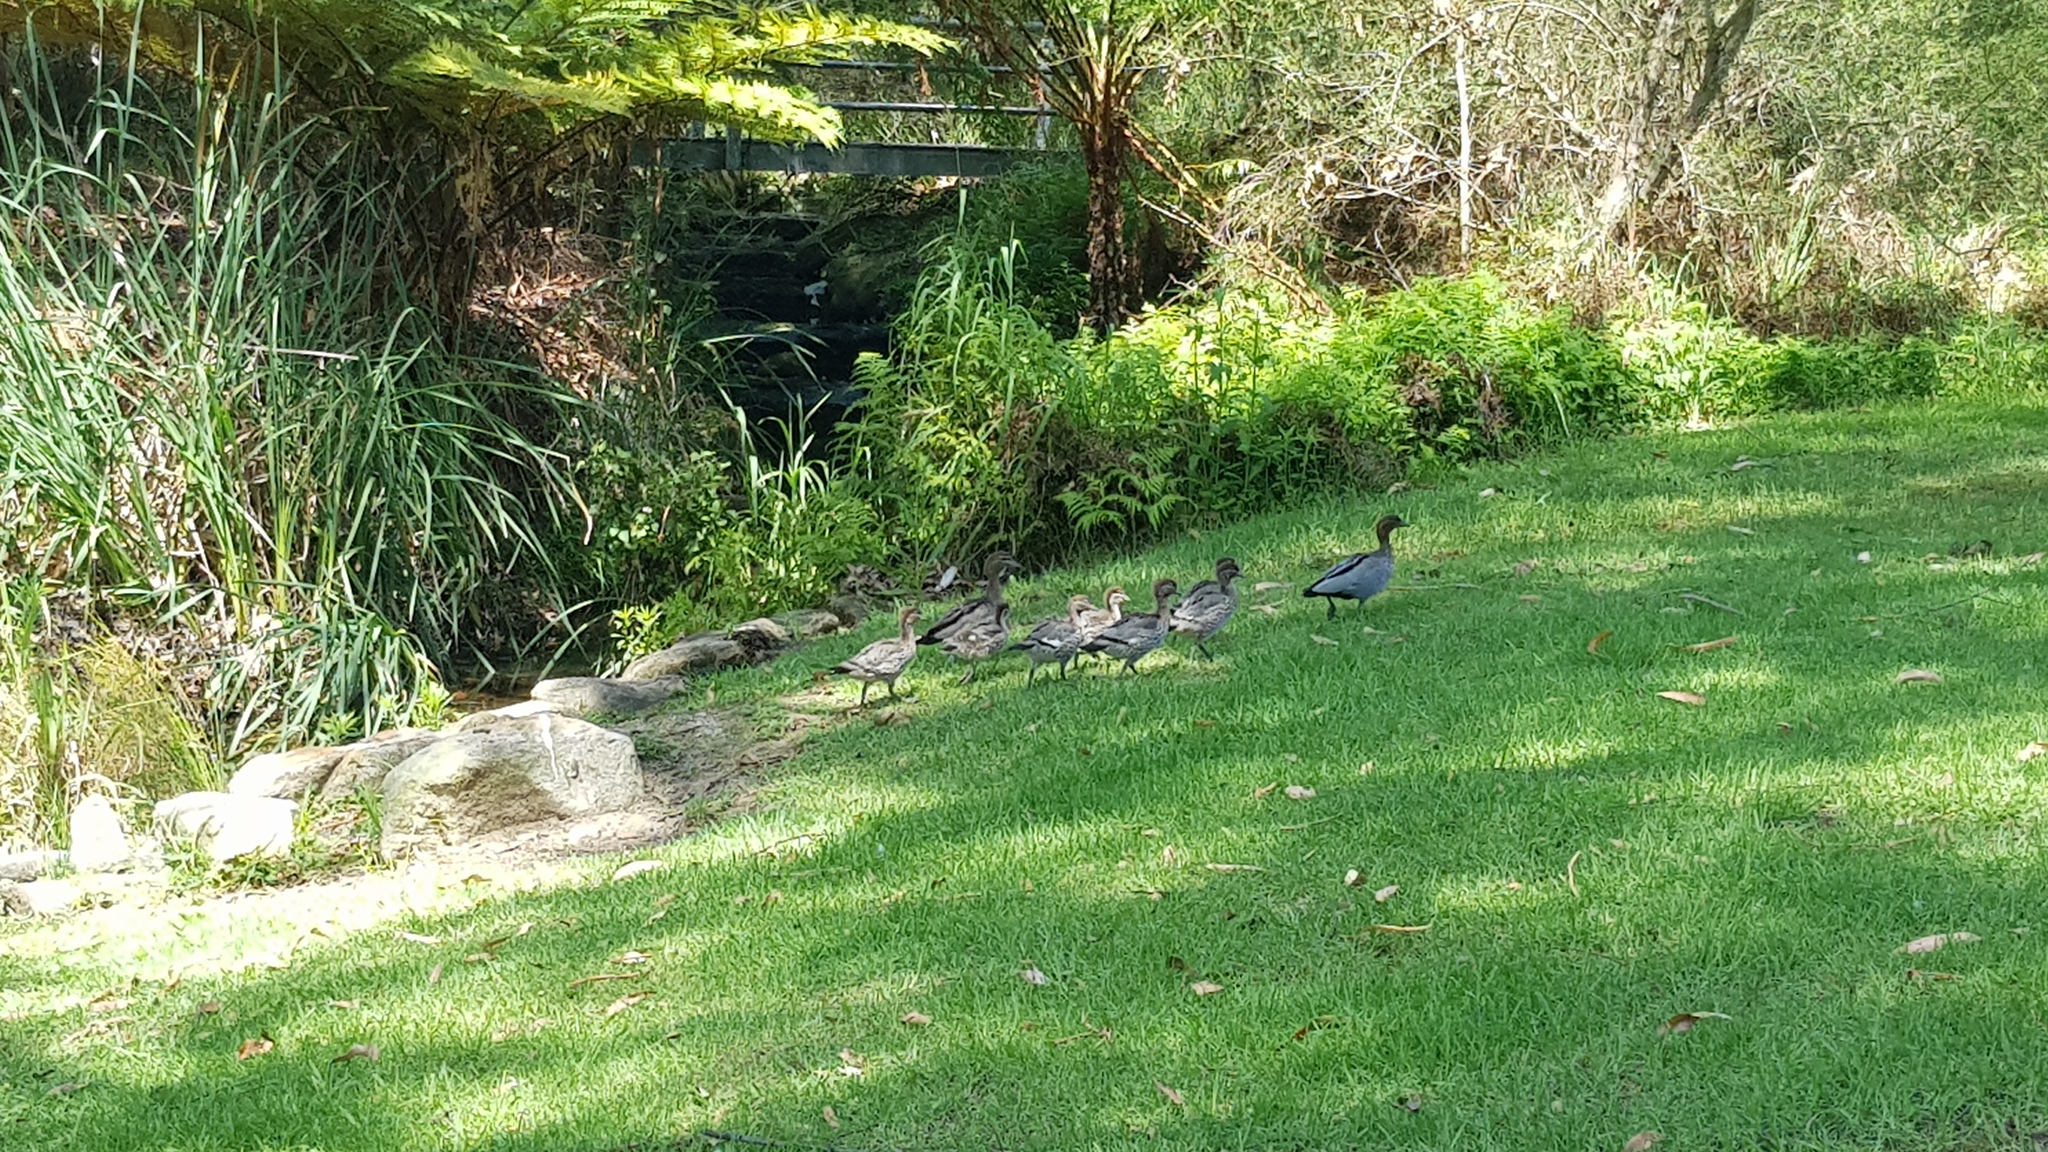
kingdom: Animalia
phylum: Chordata
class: Aves
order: Anseriformes
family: Anatidae
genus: Chenonetta
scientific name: Chenonetta jubata
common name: Maned duck
